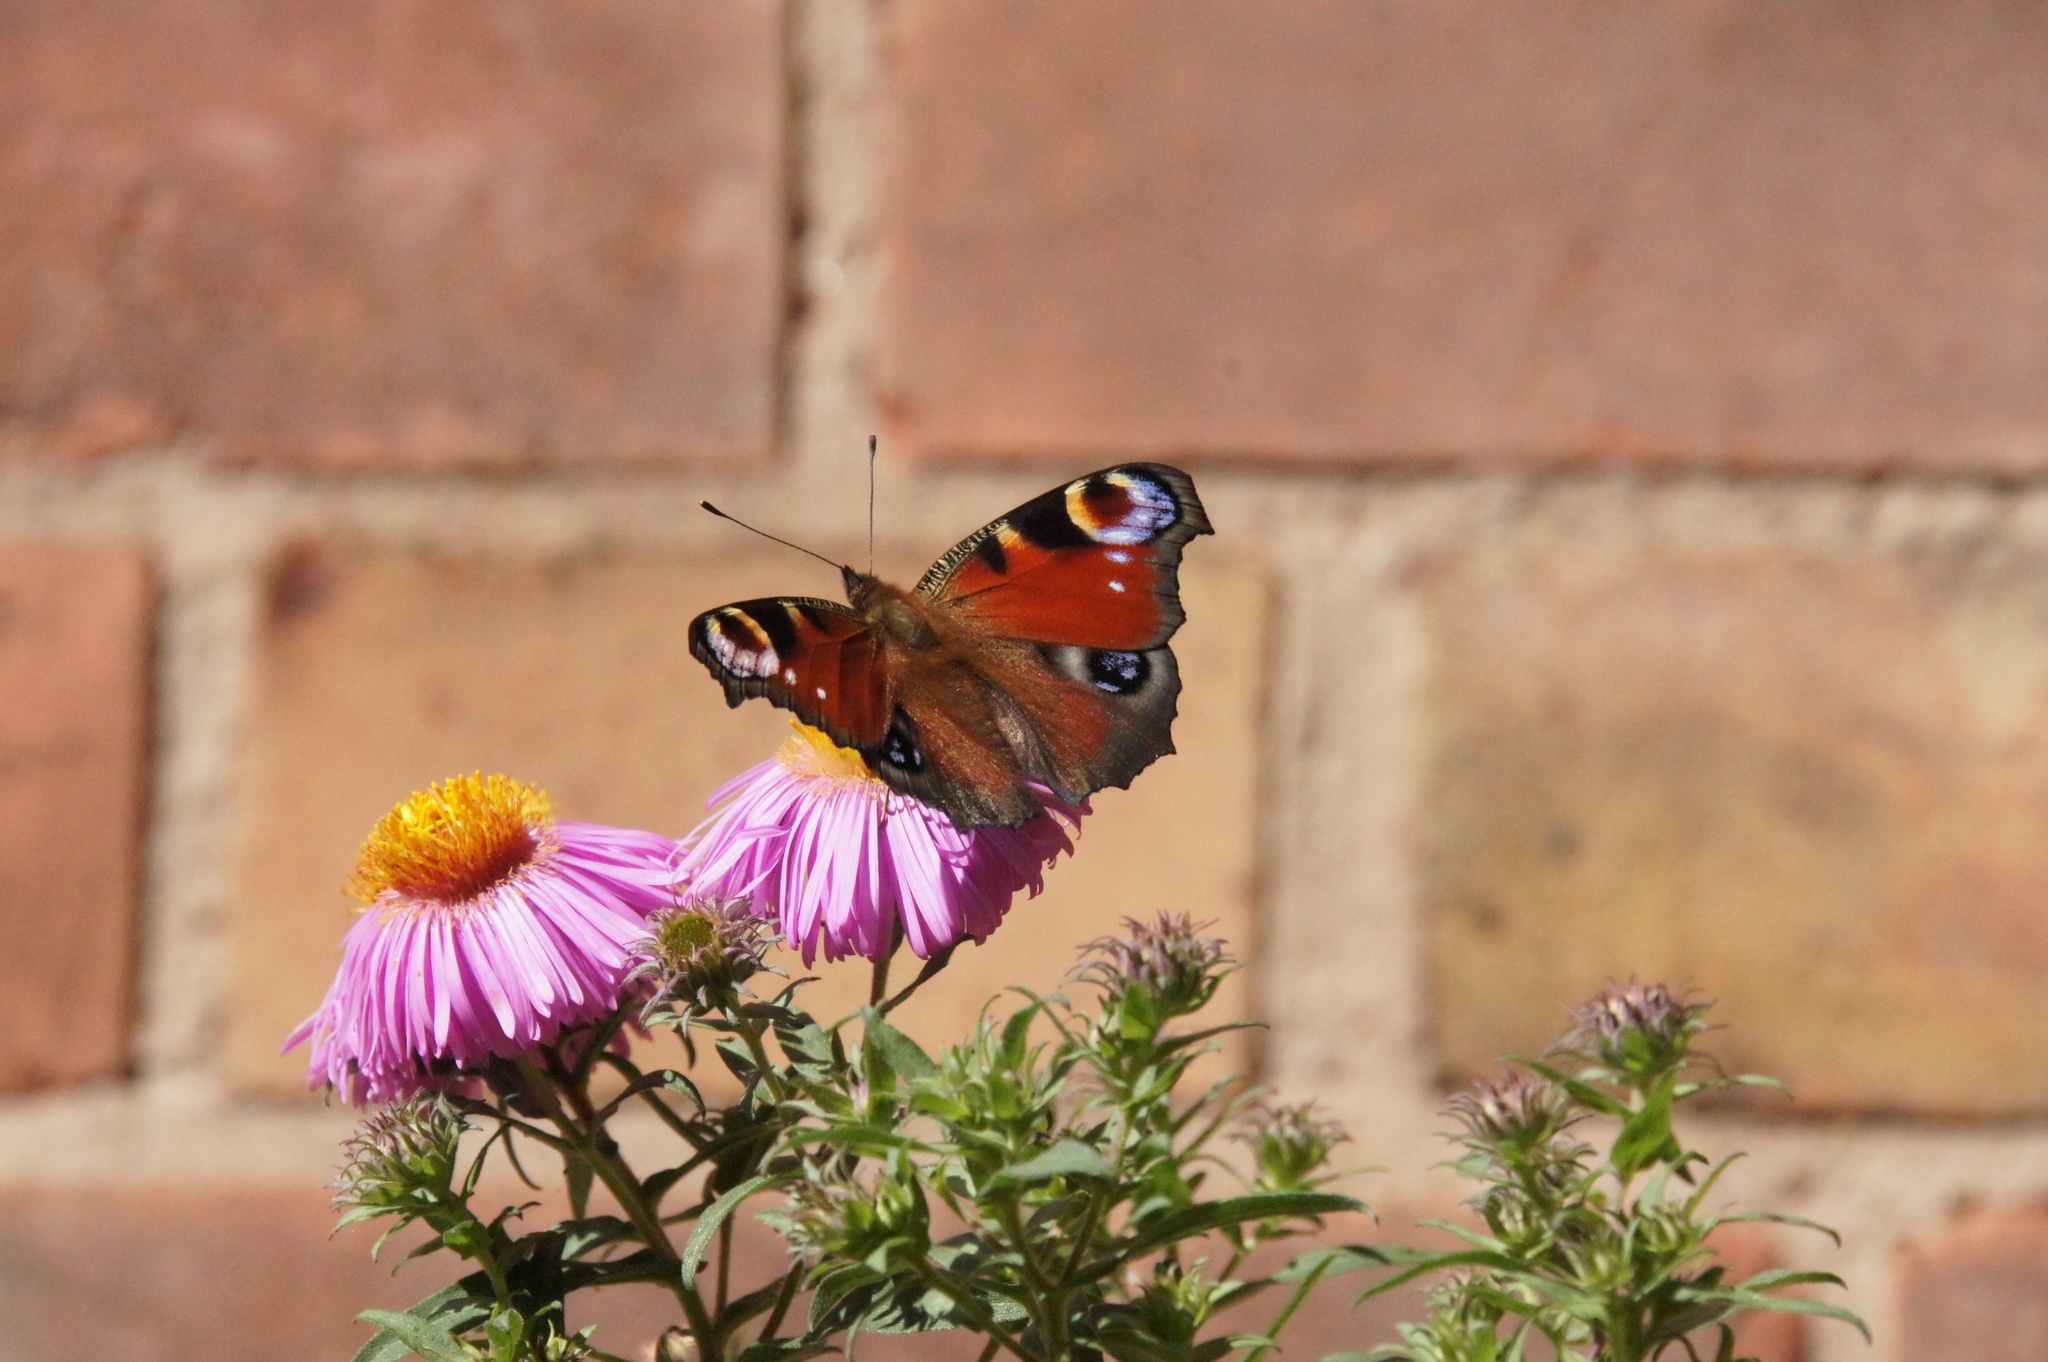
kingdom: Animalia
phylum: Arthropoda
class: Insecta
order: Lepidoptera
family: Nymphalidae
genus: Aglais
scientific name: Aglais io
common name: Peacock
